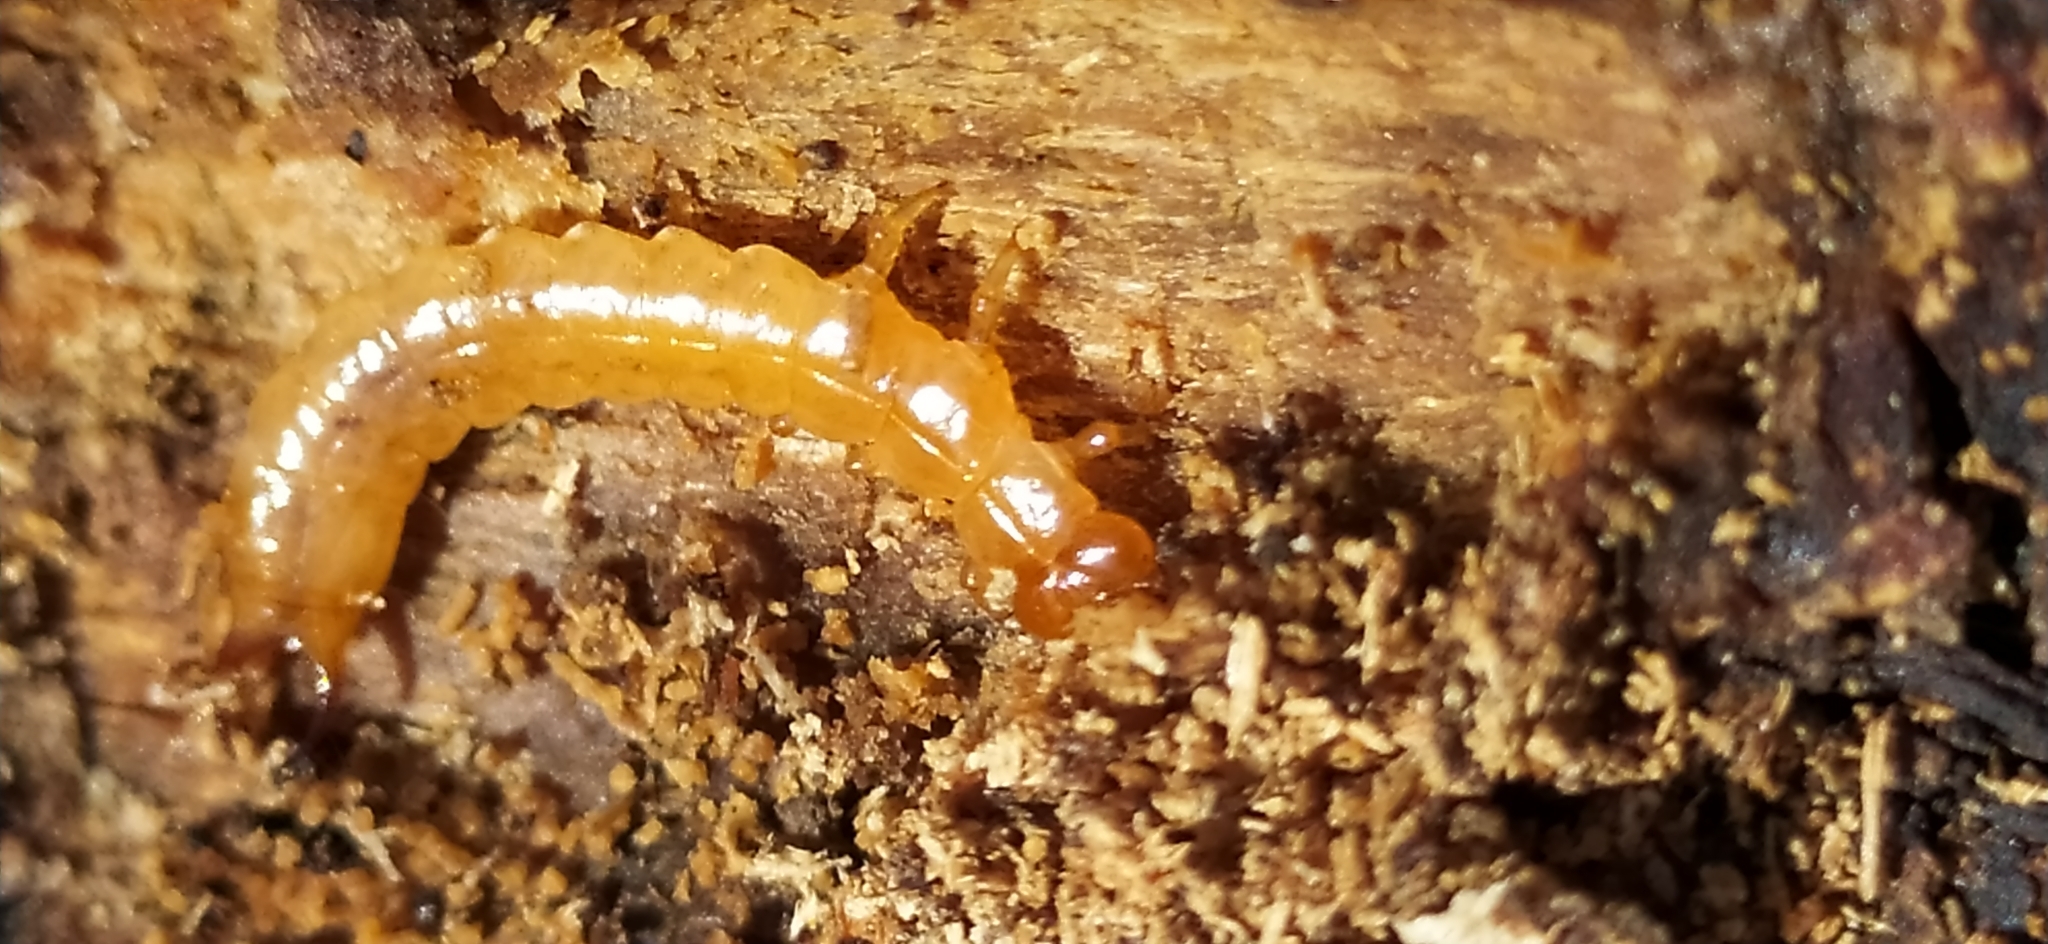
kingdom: Animalia
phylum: Arthropoda
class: Insecta
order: Coleoptera
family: Pyrochroidae
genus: Schizotus
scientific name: Schizotus pectinicornis
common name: Scarce cardinal beetle
